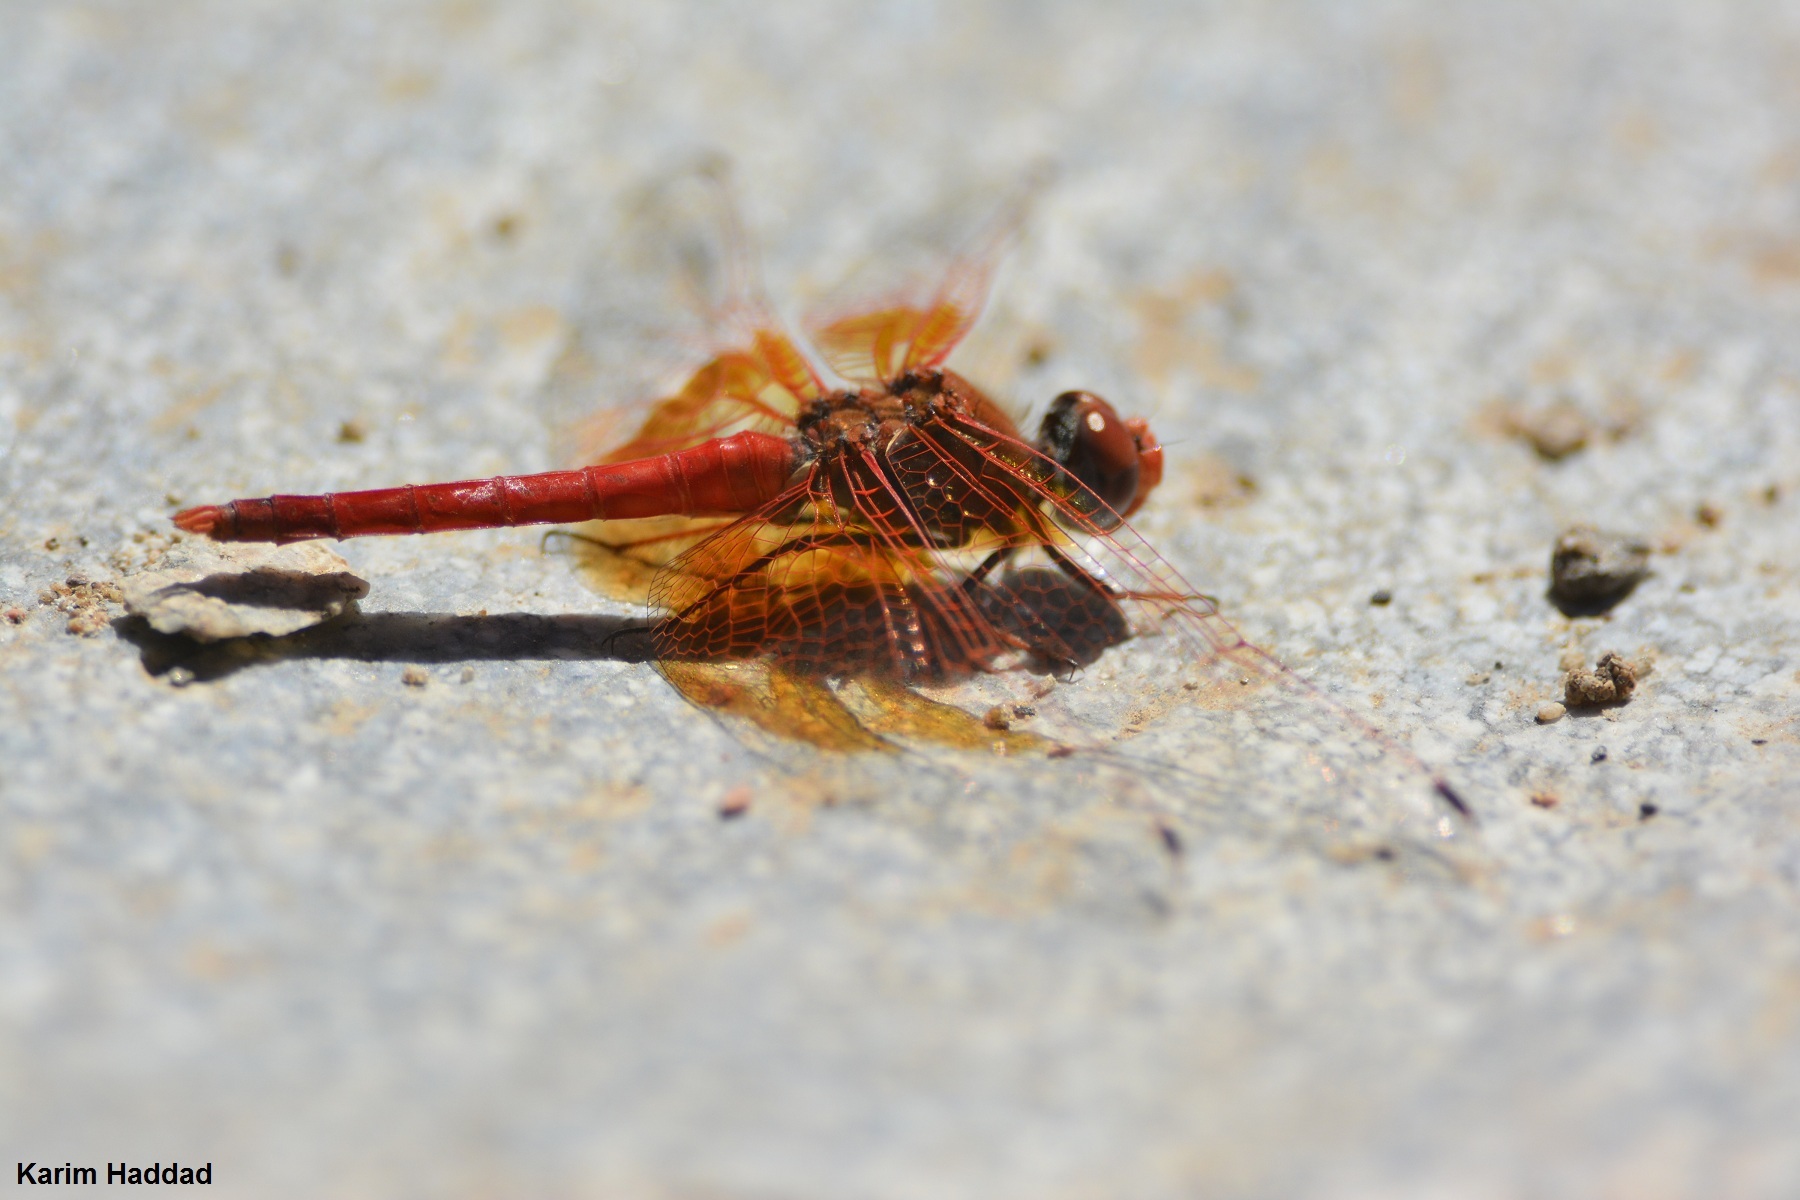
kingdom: Animalia
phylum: Arthropoda
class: Insecta
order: Odonata
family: Libellulidae
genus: Trithemis
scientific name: Trithemis kirbyi
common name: Kirby's dropwing
